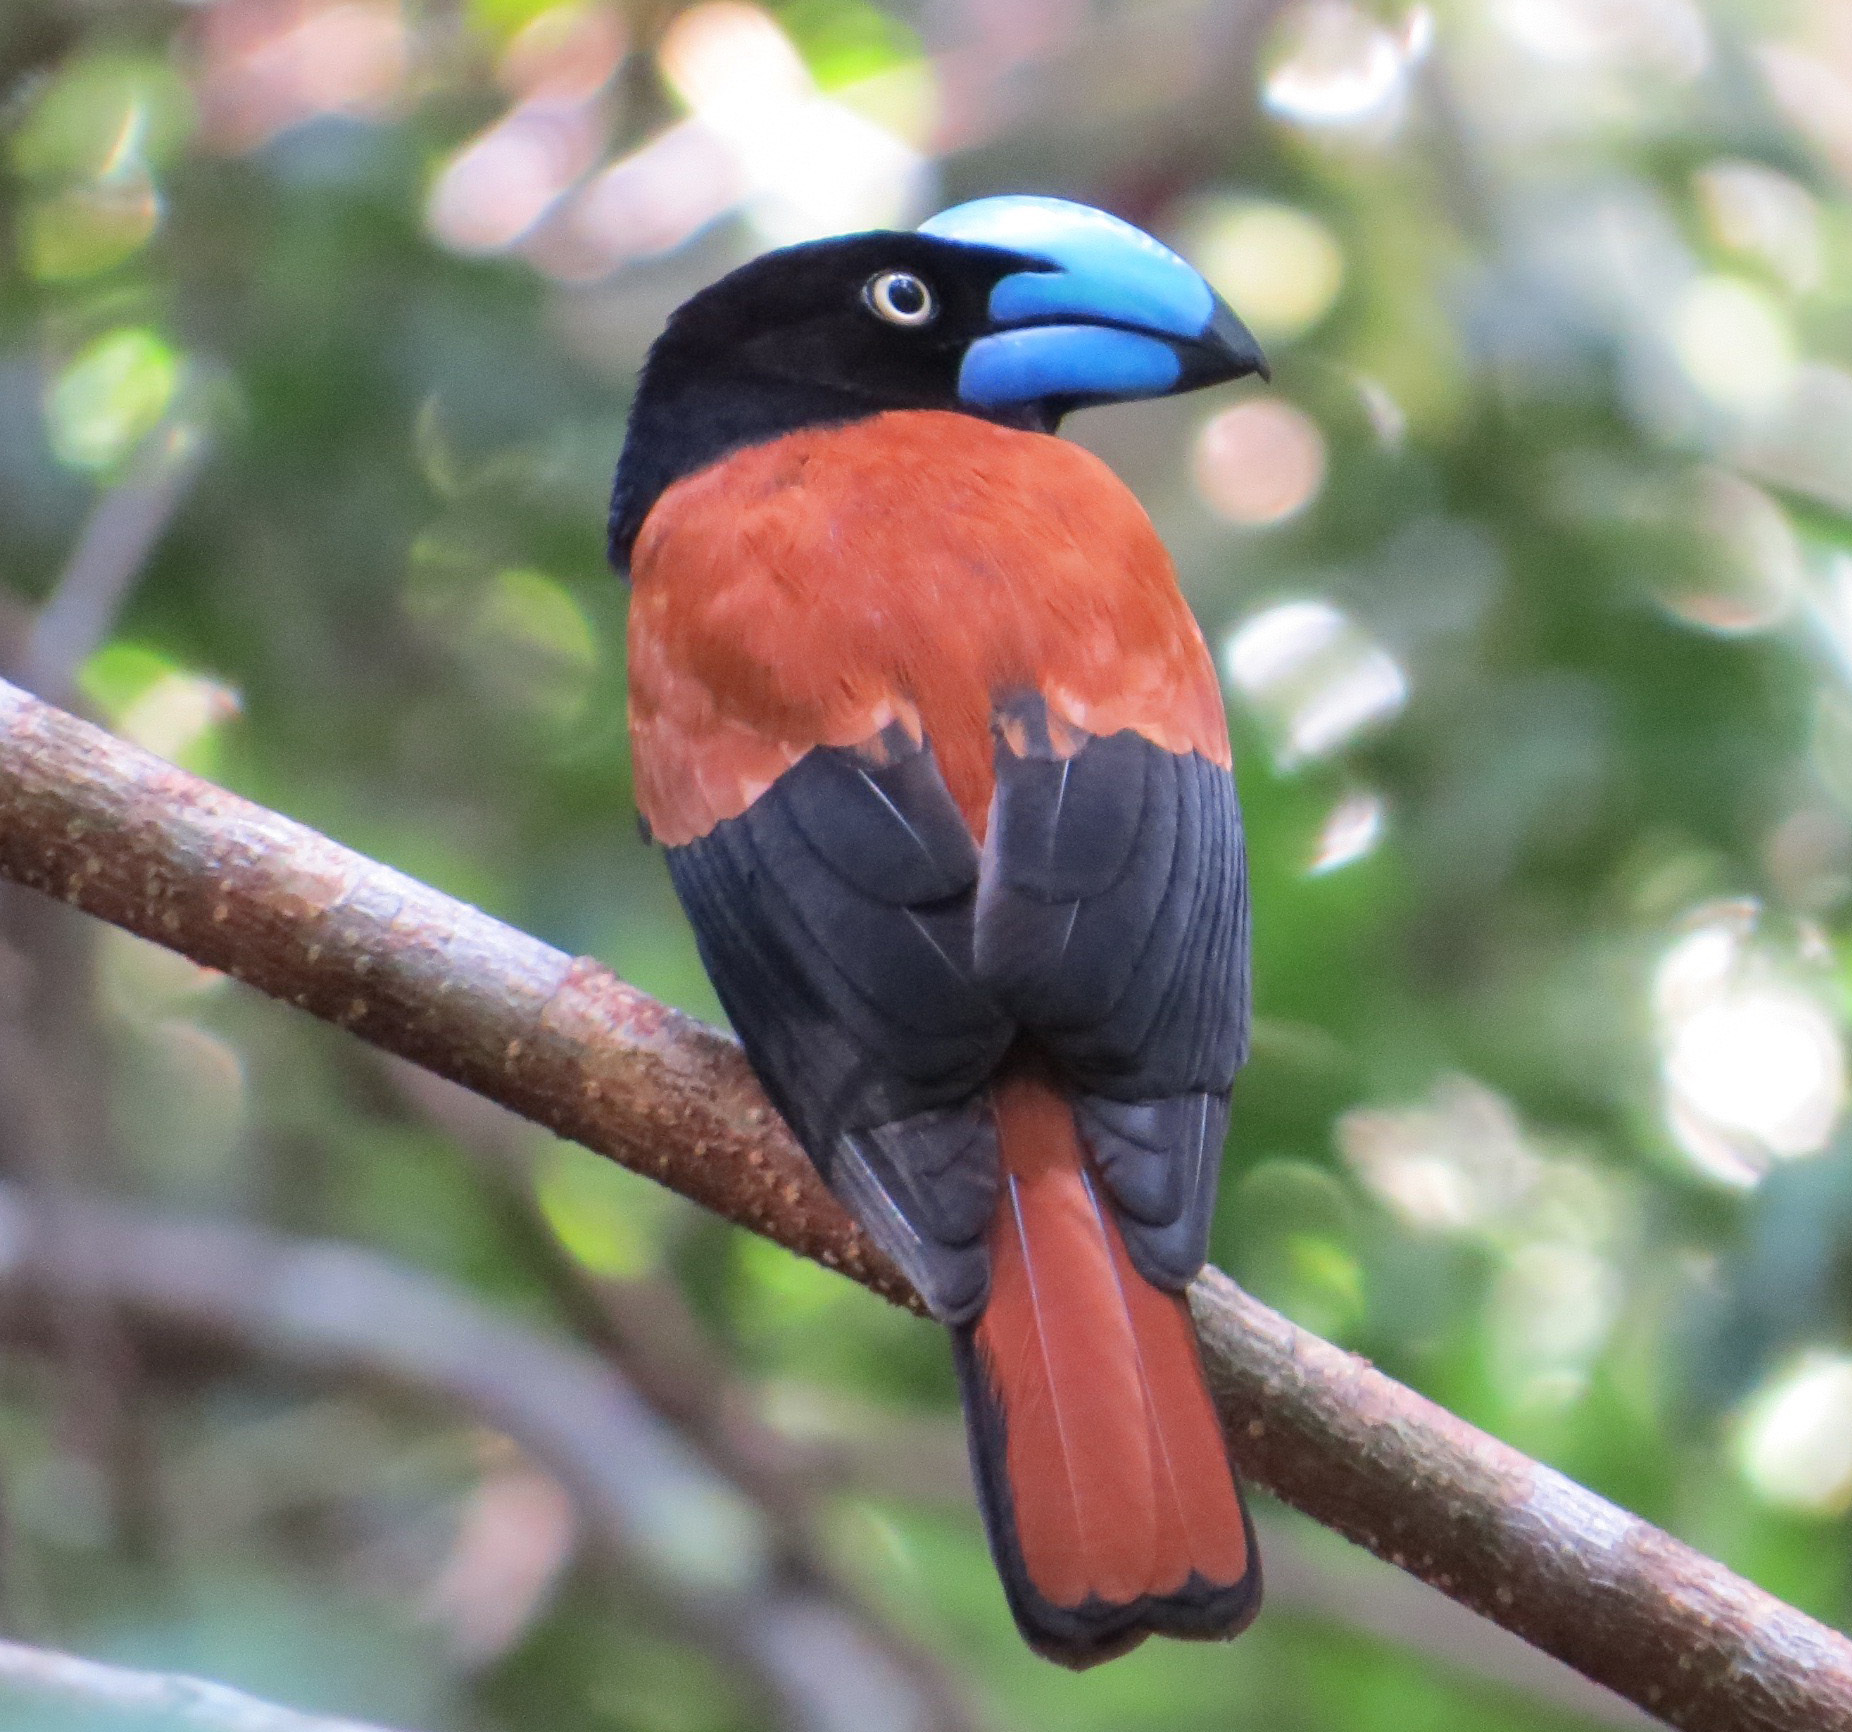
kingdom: Animalia
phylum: Chordata
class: Aves
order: Passeriformes
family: Vangidae
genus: Euryceros
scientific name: Euryceros prevostii
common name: Helmet vanga
